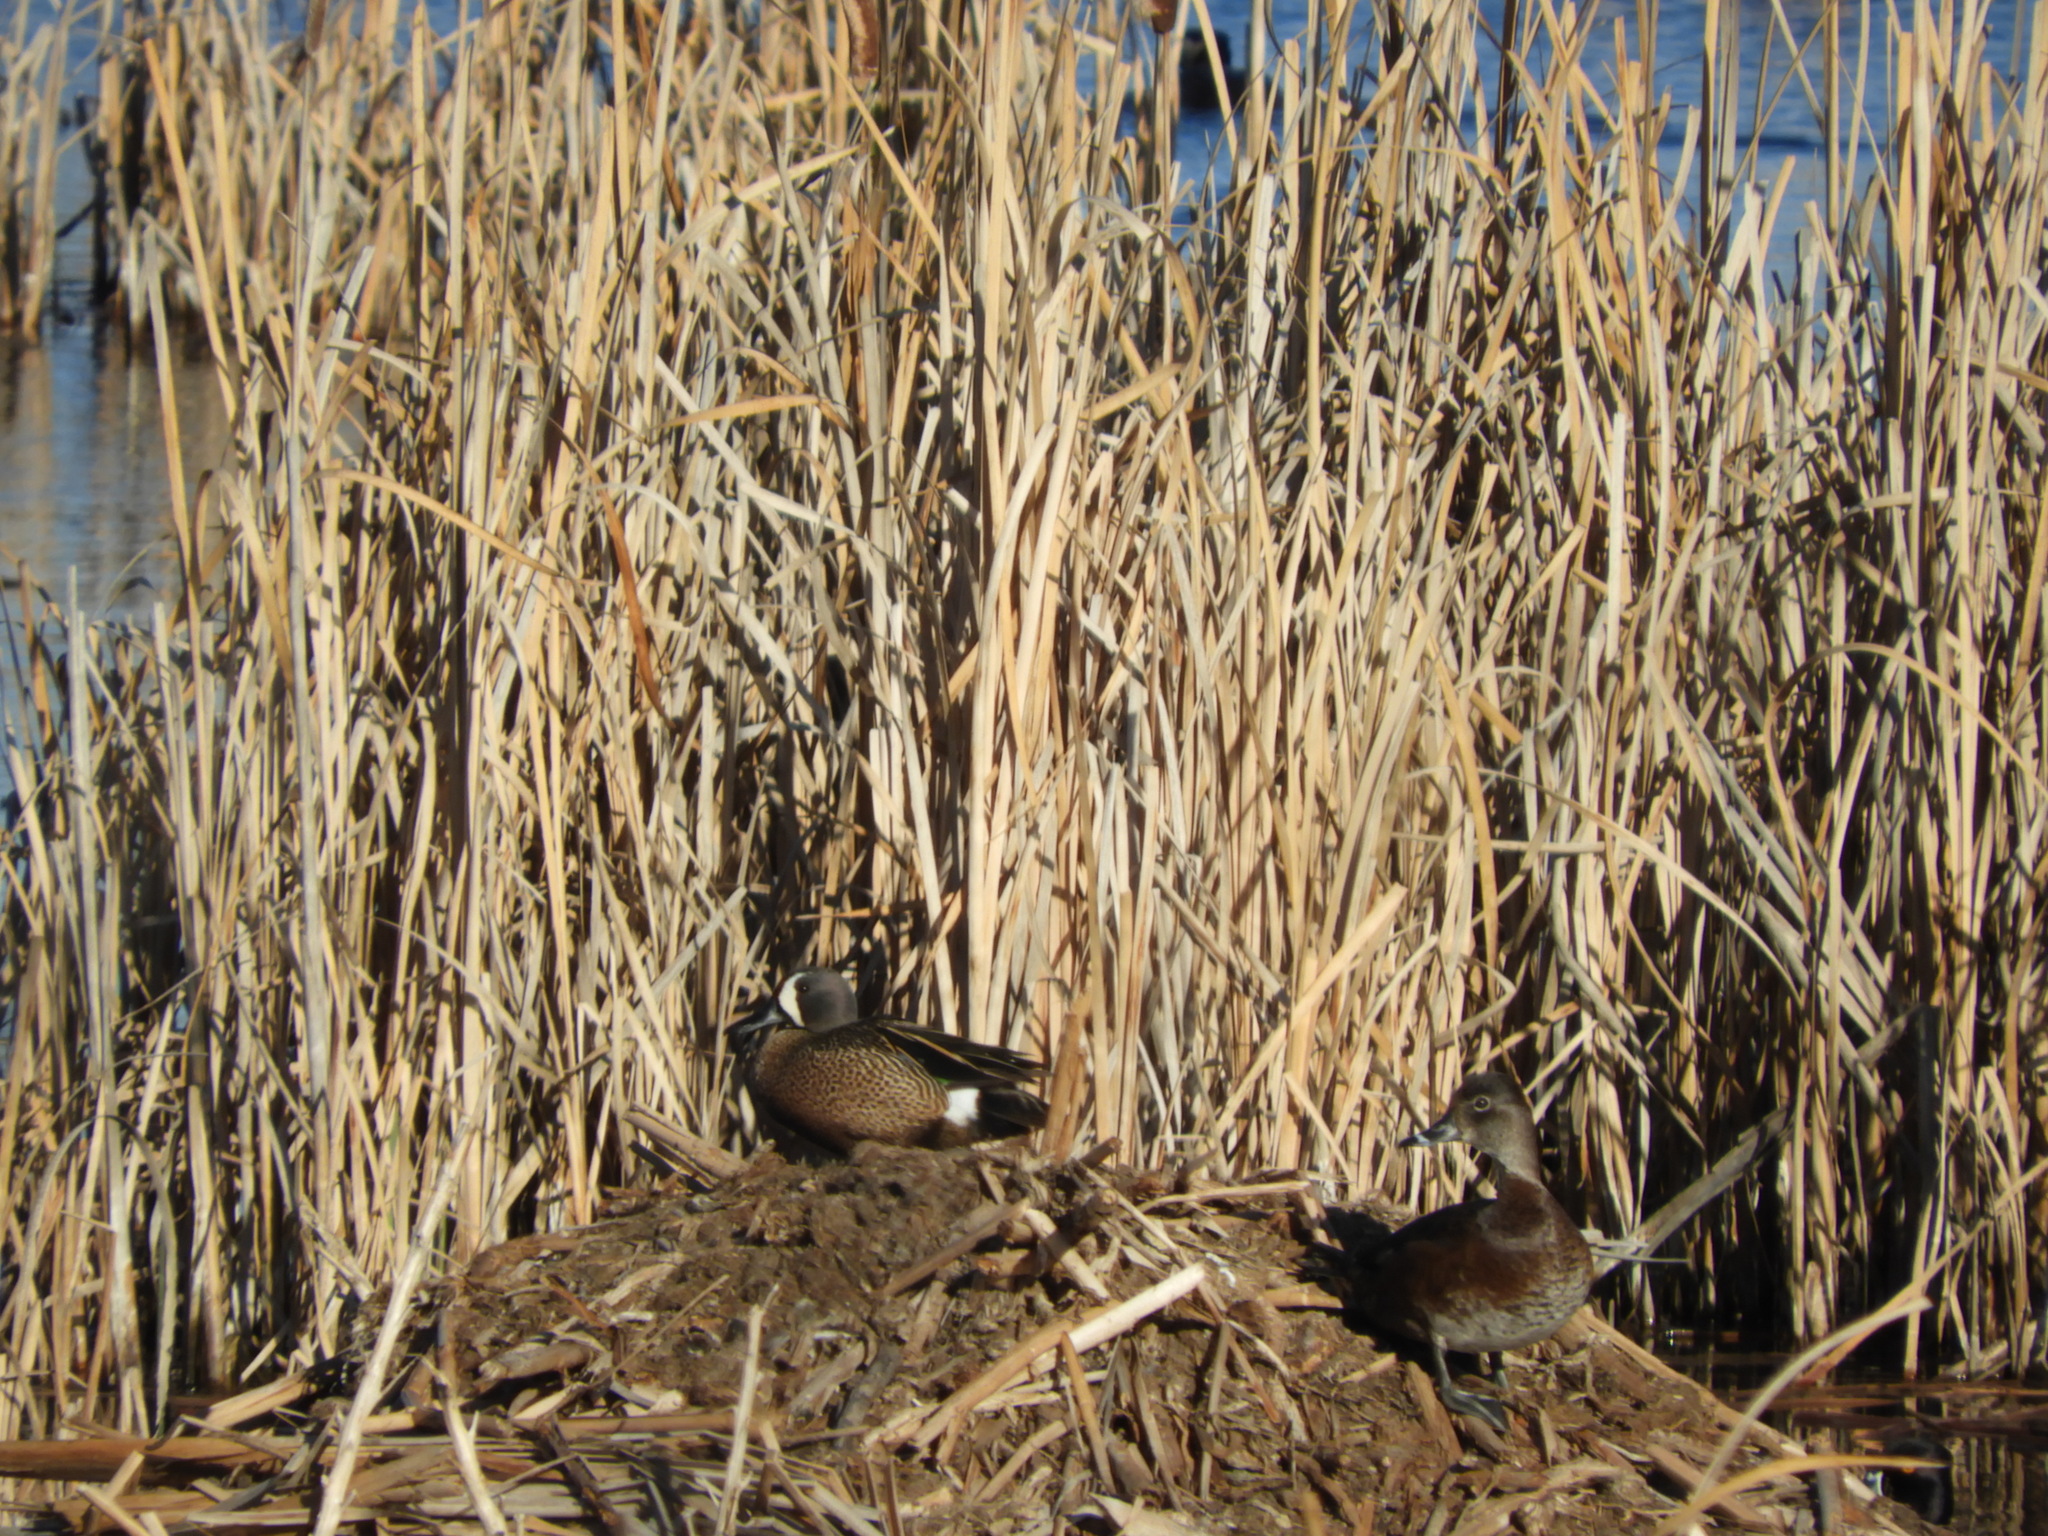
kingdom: Animalia
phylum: Chordata
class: Aves
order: Anseriformes
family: Anatidae
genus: Spatula
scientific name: Spatula discors
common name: Blue-winged teal
